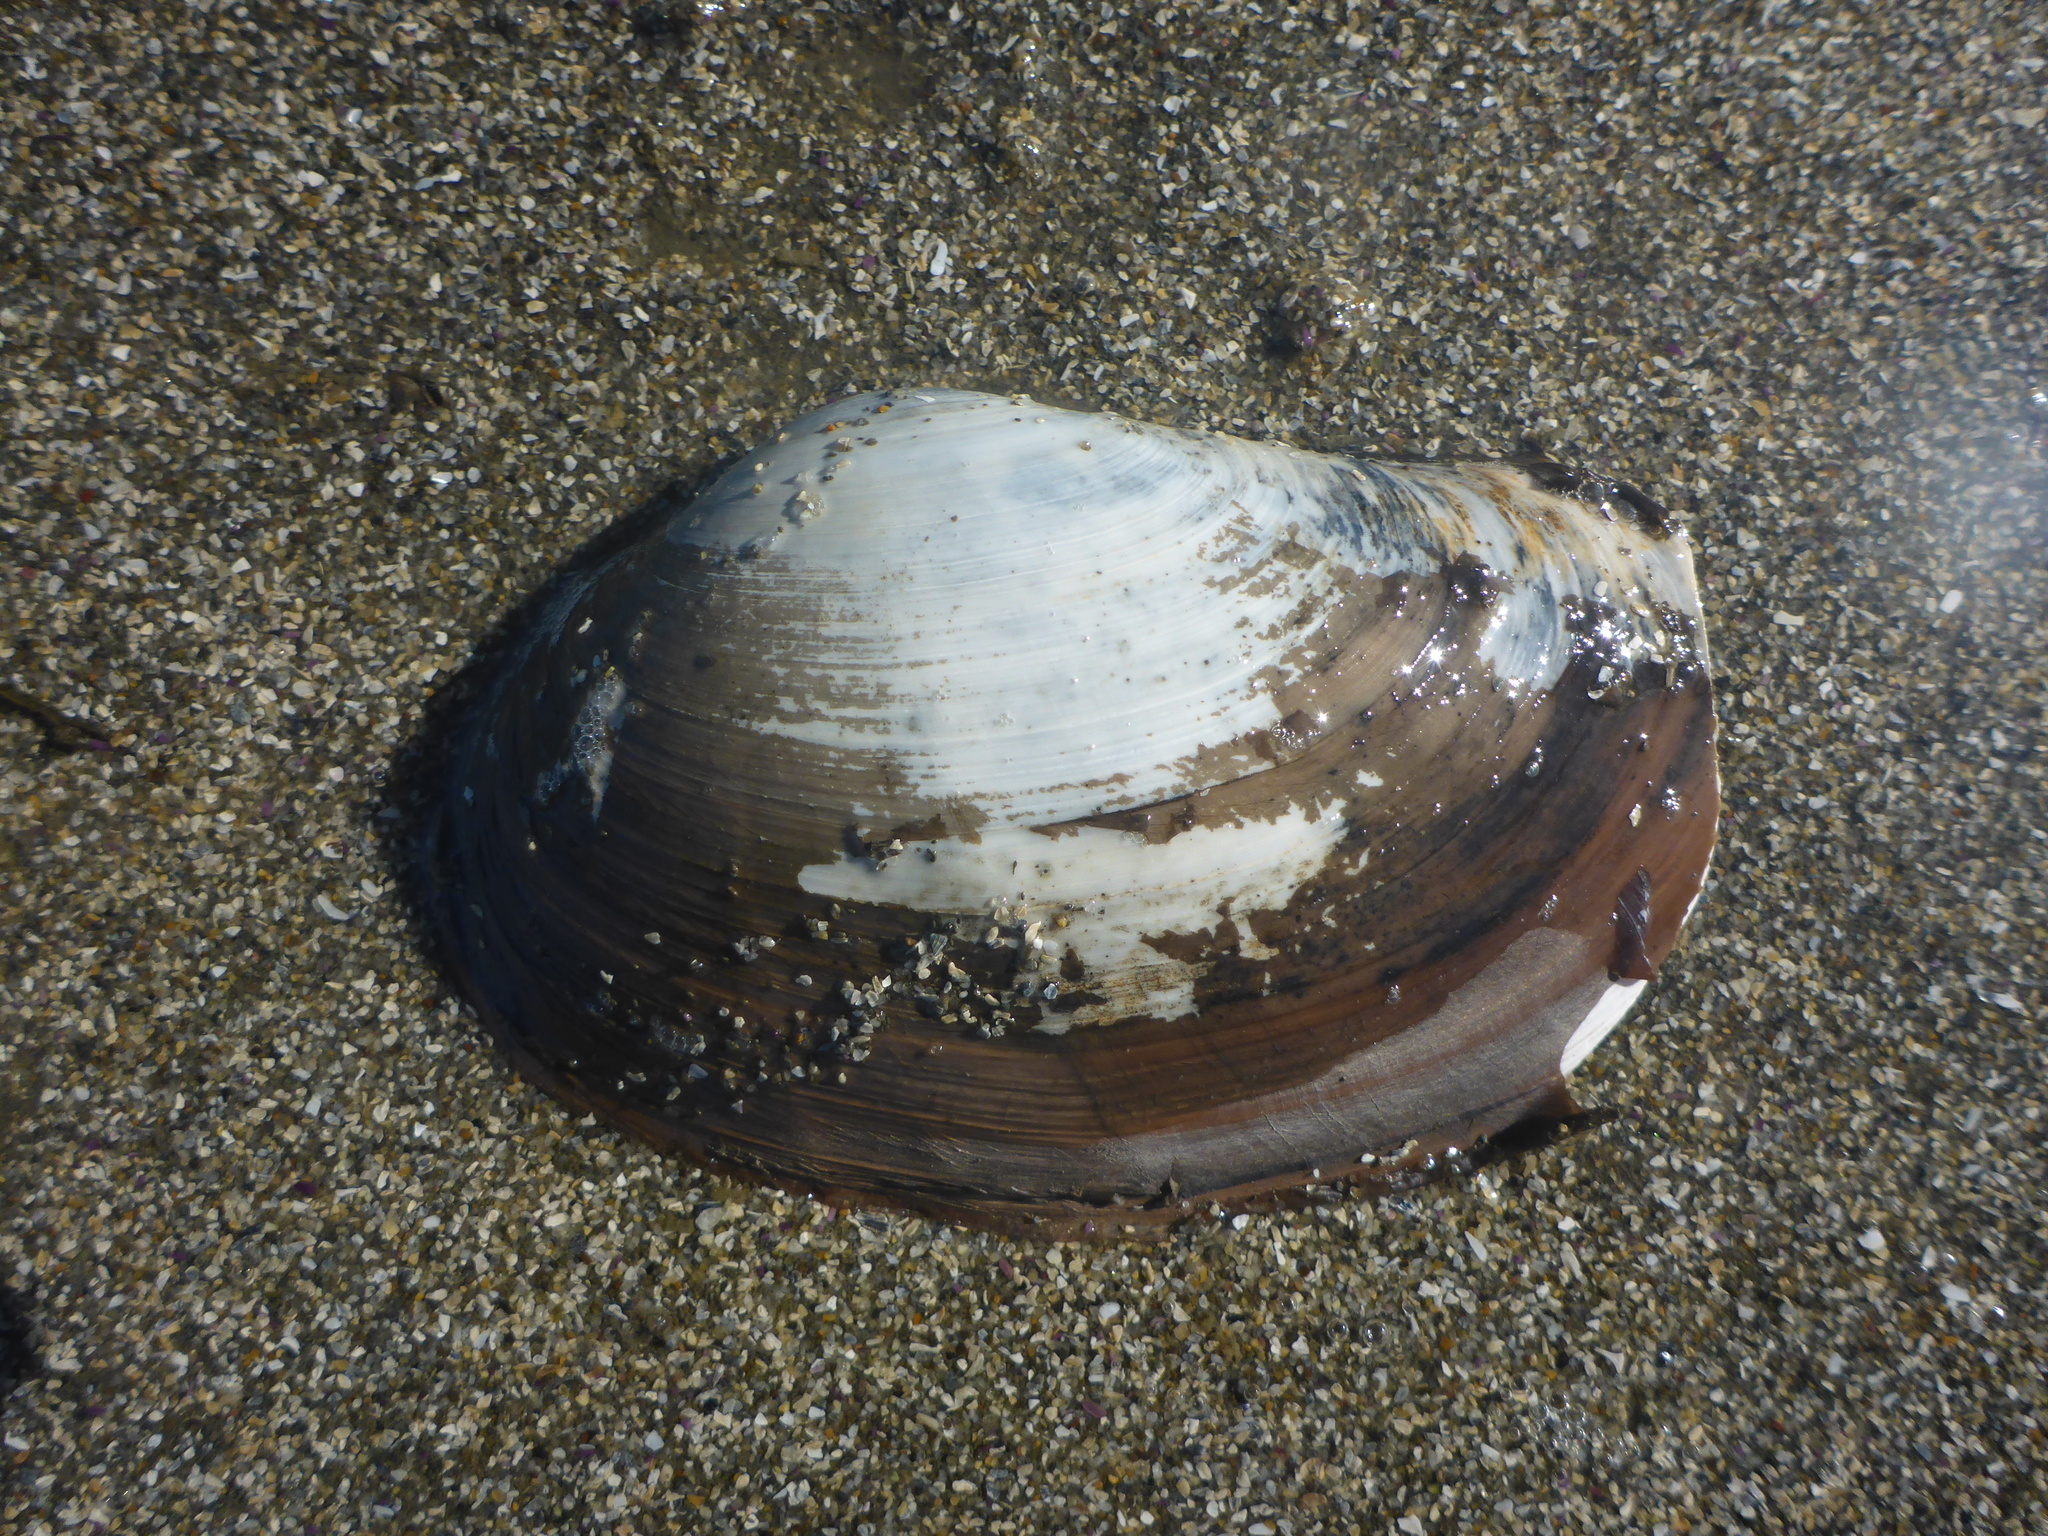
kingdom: Animalia
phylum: Mollusca
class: Bivalvia
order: Venerida
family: Mactridae
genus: Tresus
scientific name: Tresus nuttallii
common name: Pacific gaper clam
